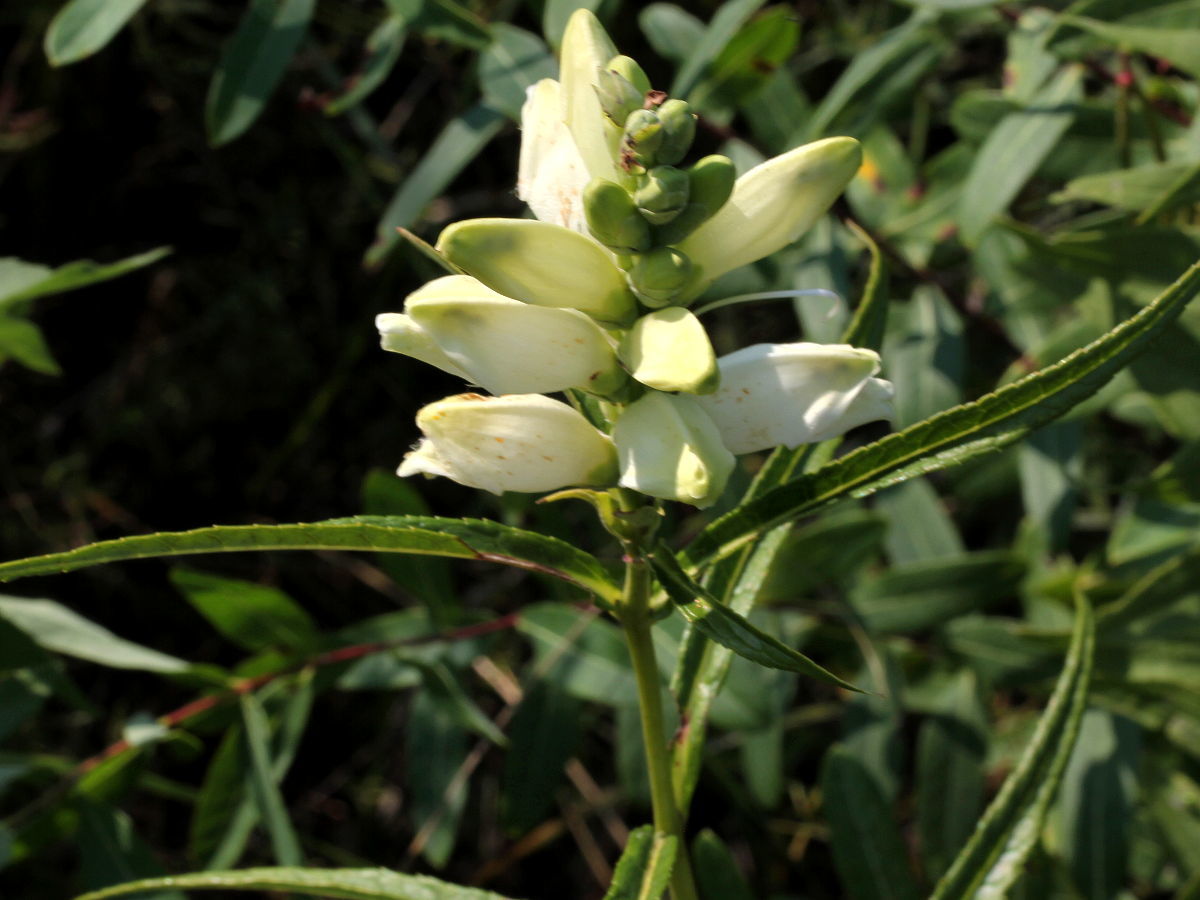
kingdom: Plantae
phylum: Tracheophyta
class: Magnoliopsida
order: Lamiales
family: Plantaginaceae
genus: Chelone
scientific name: Chelone glabra
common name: Snakehead
